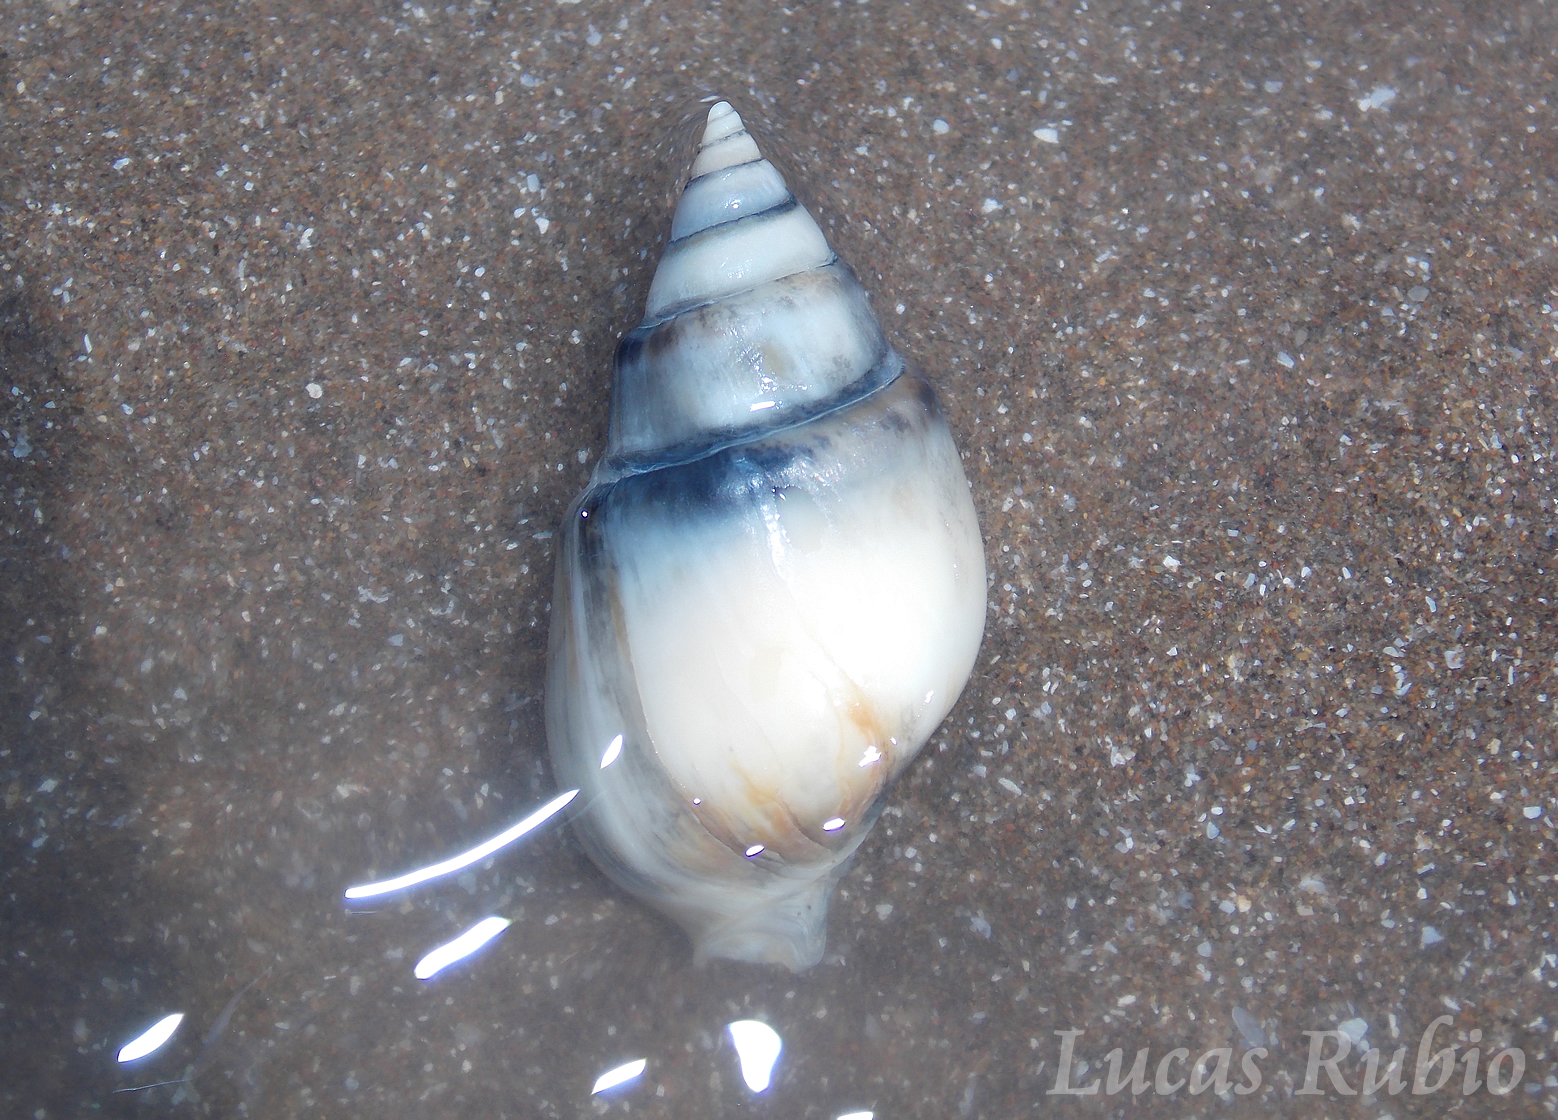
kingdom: Animalia
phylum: Mollusca
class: Gastropoda
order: Neogastropoda
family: Buccinanopsidae
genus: Buccinanops
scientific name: Buccinanops cochlidium
